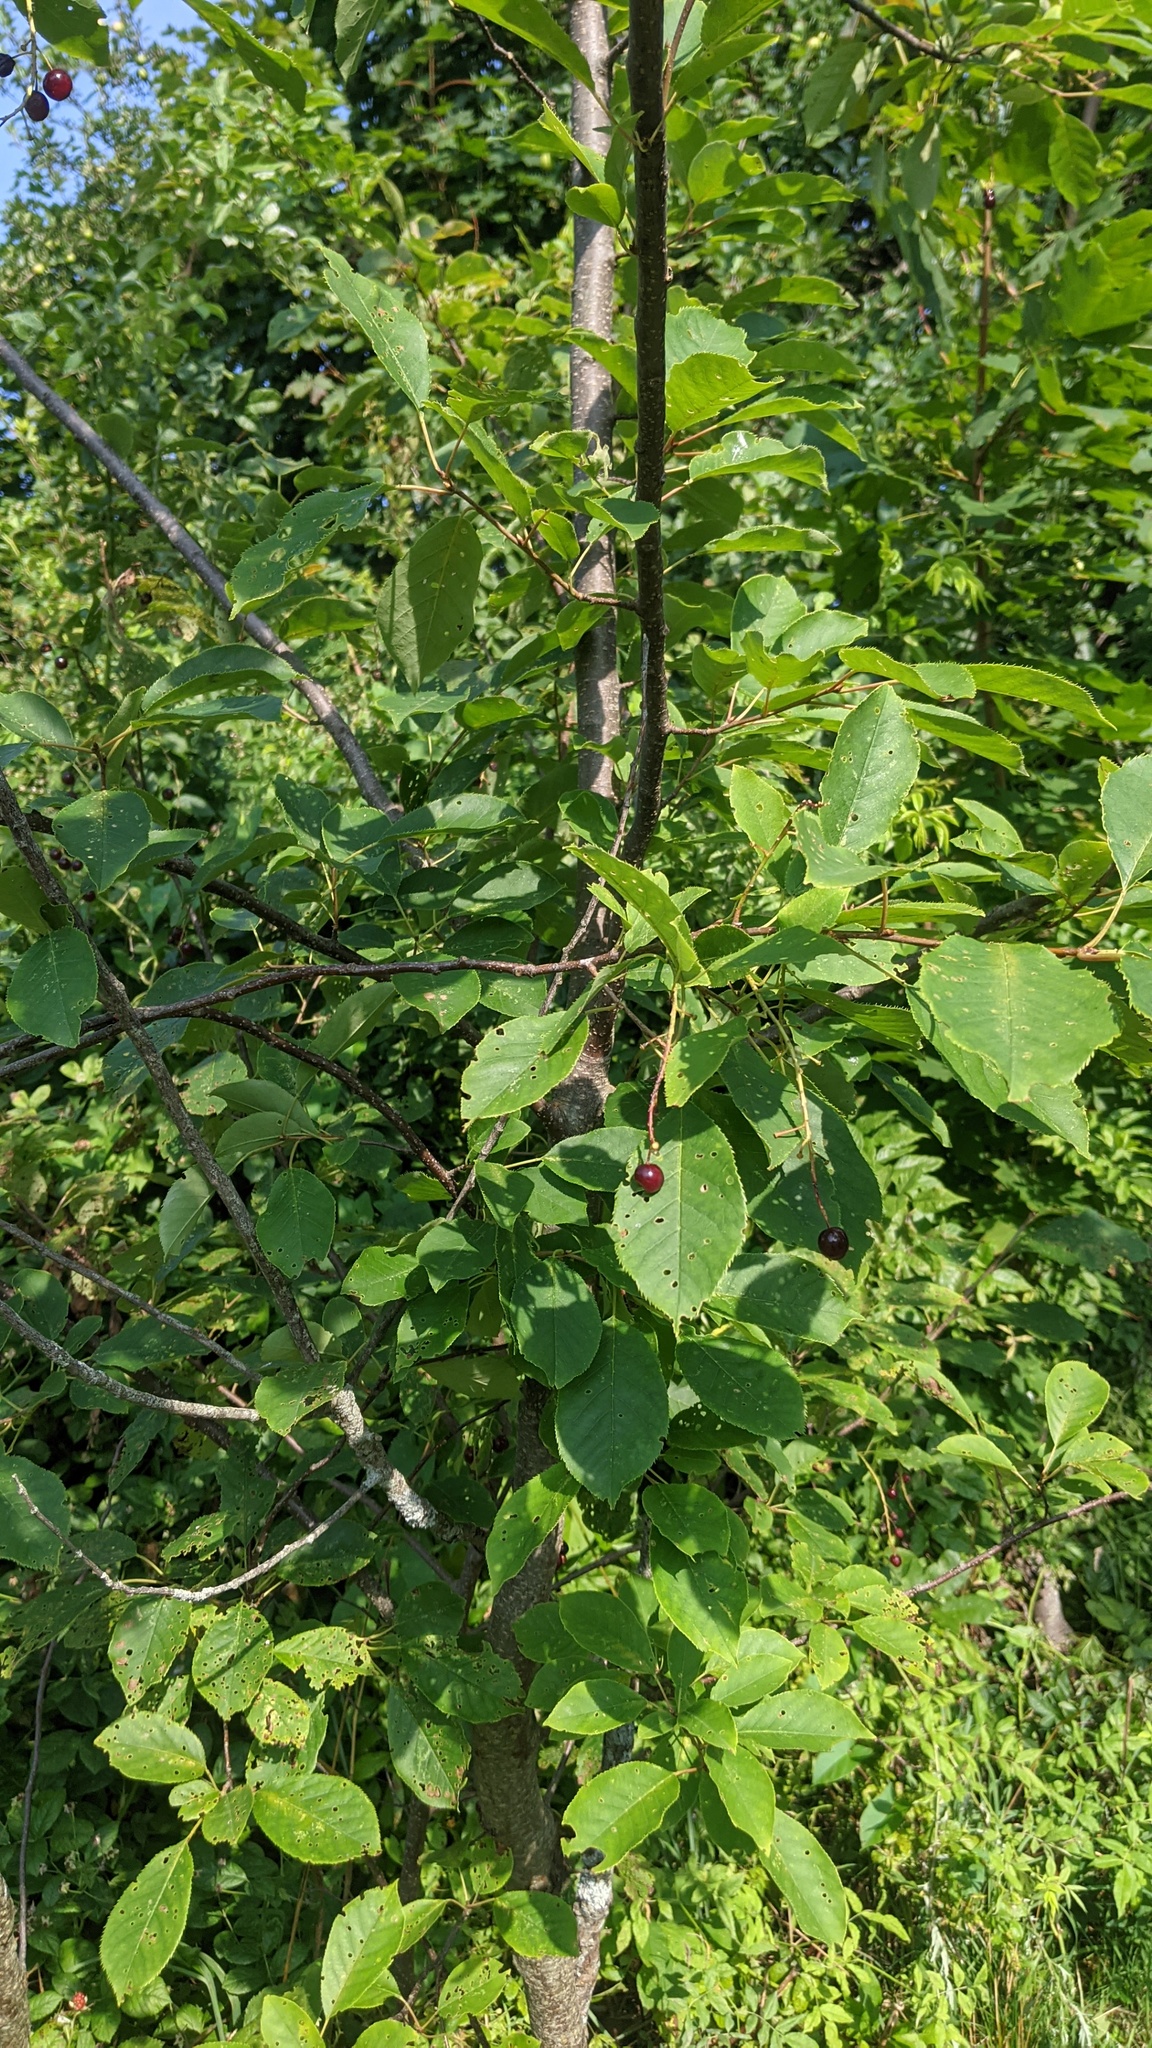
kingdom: Plantae
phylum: Tracheophyta
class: Magnoliopsida
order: Rosales
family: Rosaceae
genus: Prunus
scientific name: Prunus virginiana
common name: Chokecherry
